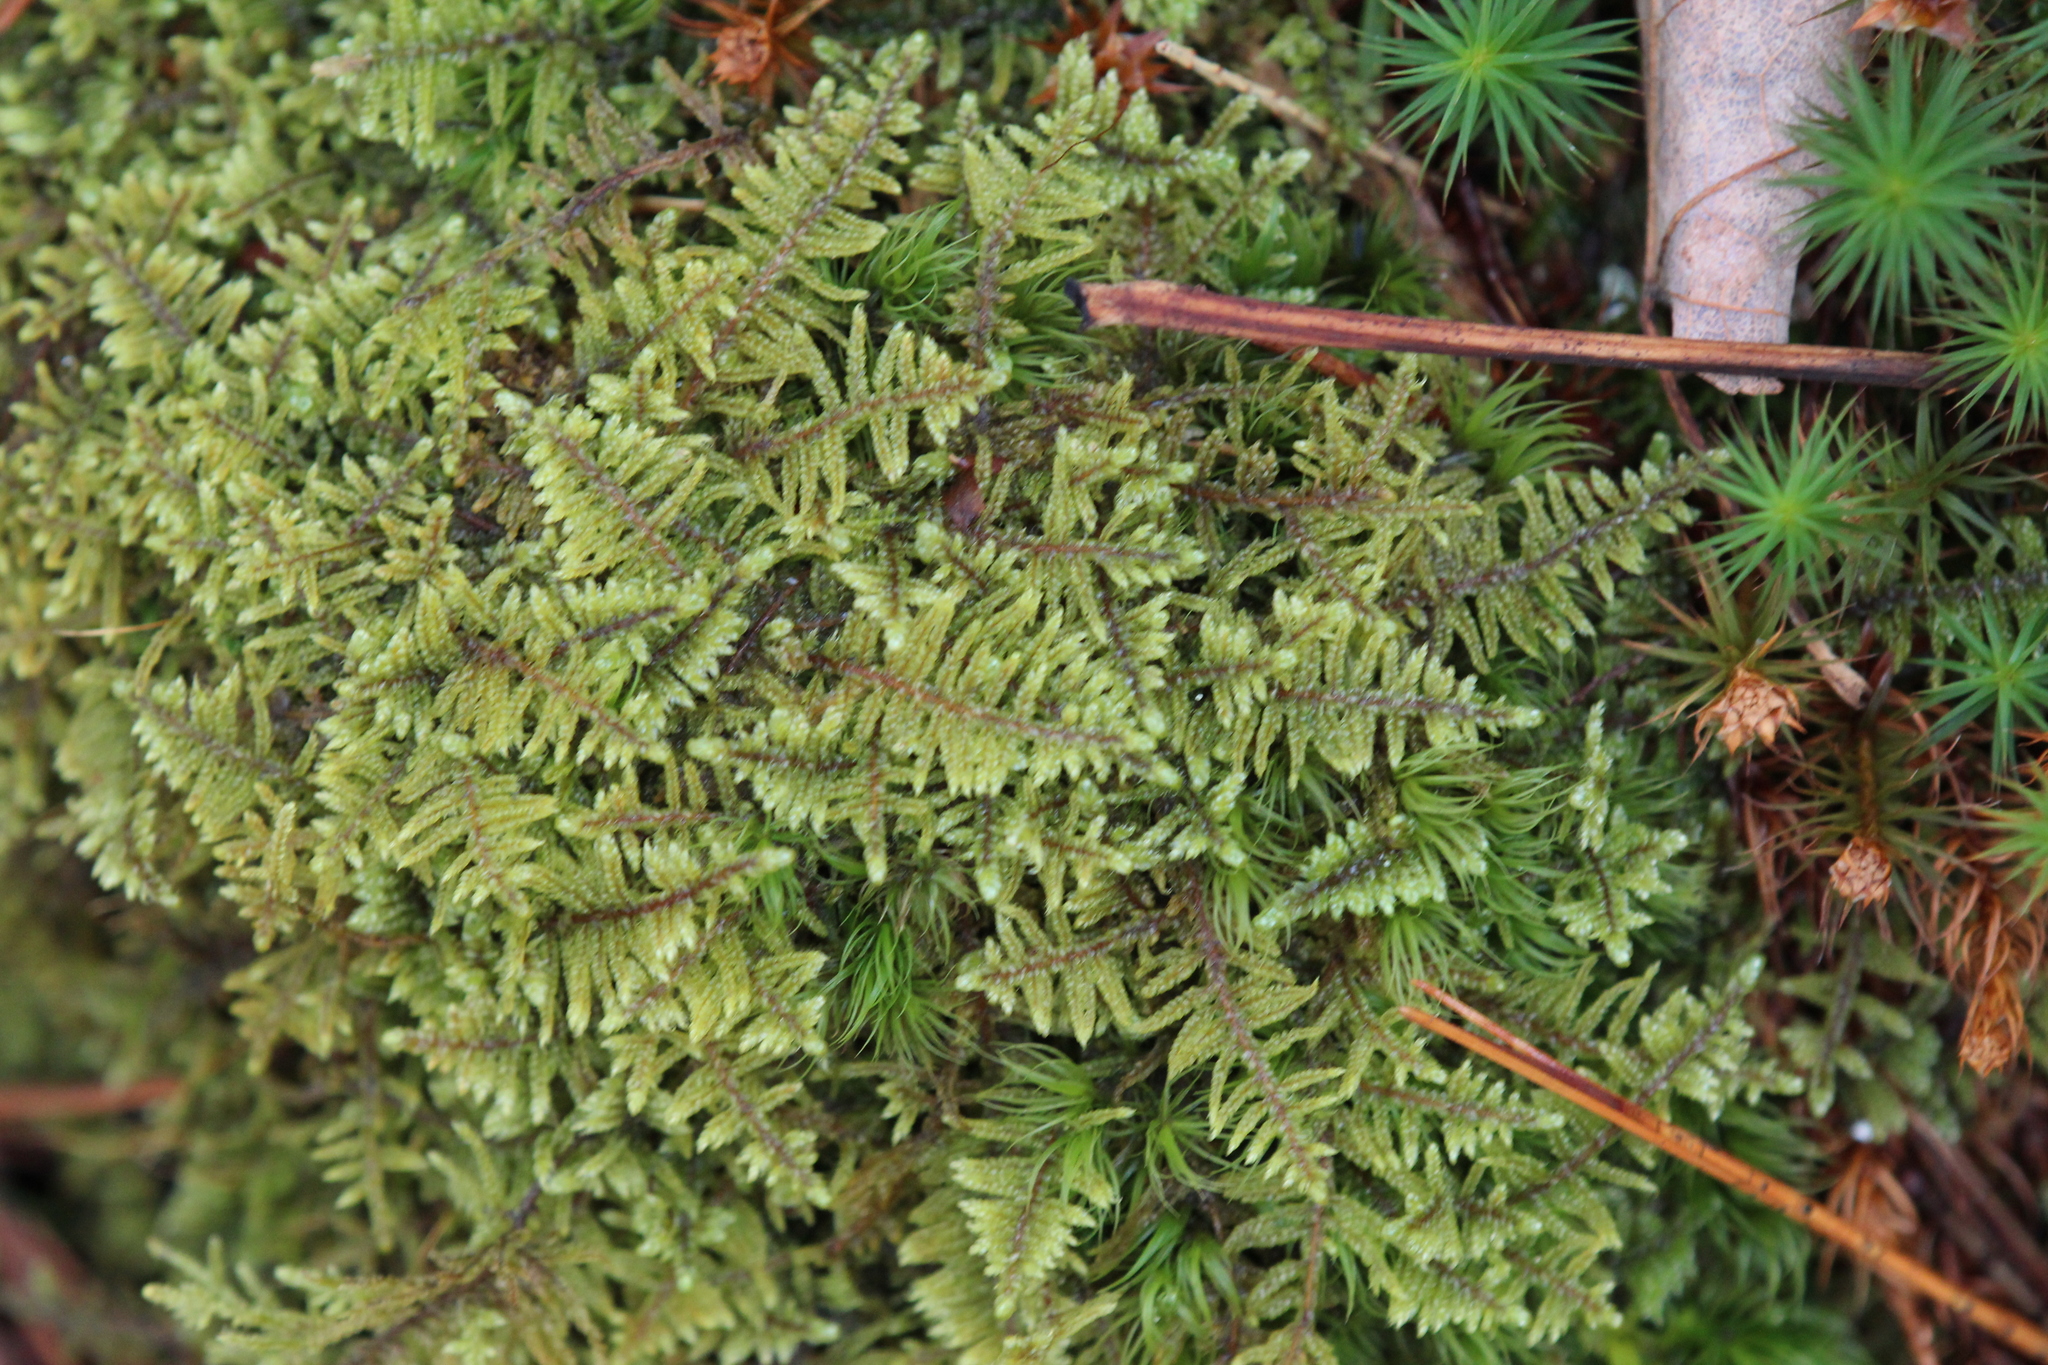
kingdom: Plantae
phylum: Bryophyta
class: Bryopsida
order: Hypnales
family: Callicladiaceae
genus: Callicladium
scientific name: Callicladium imponens
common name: Brocade moss
